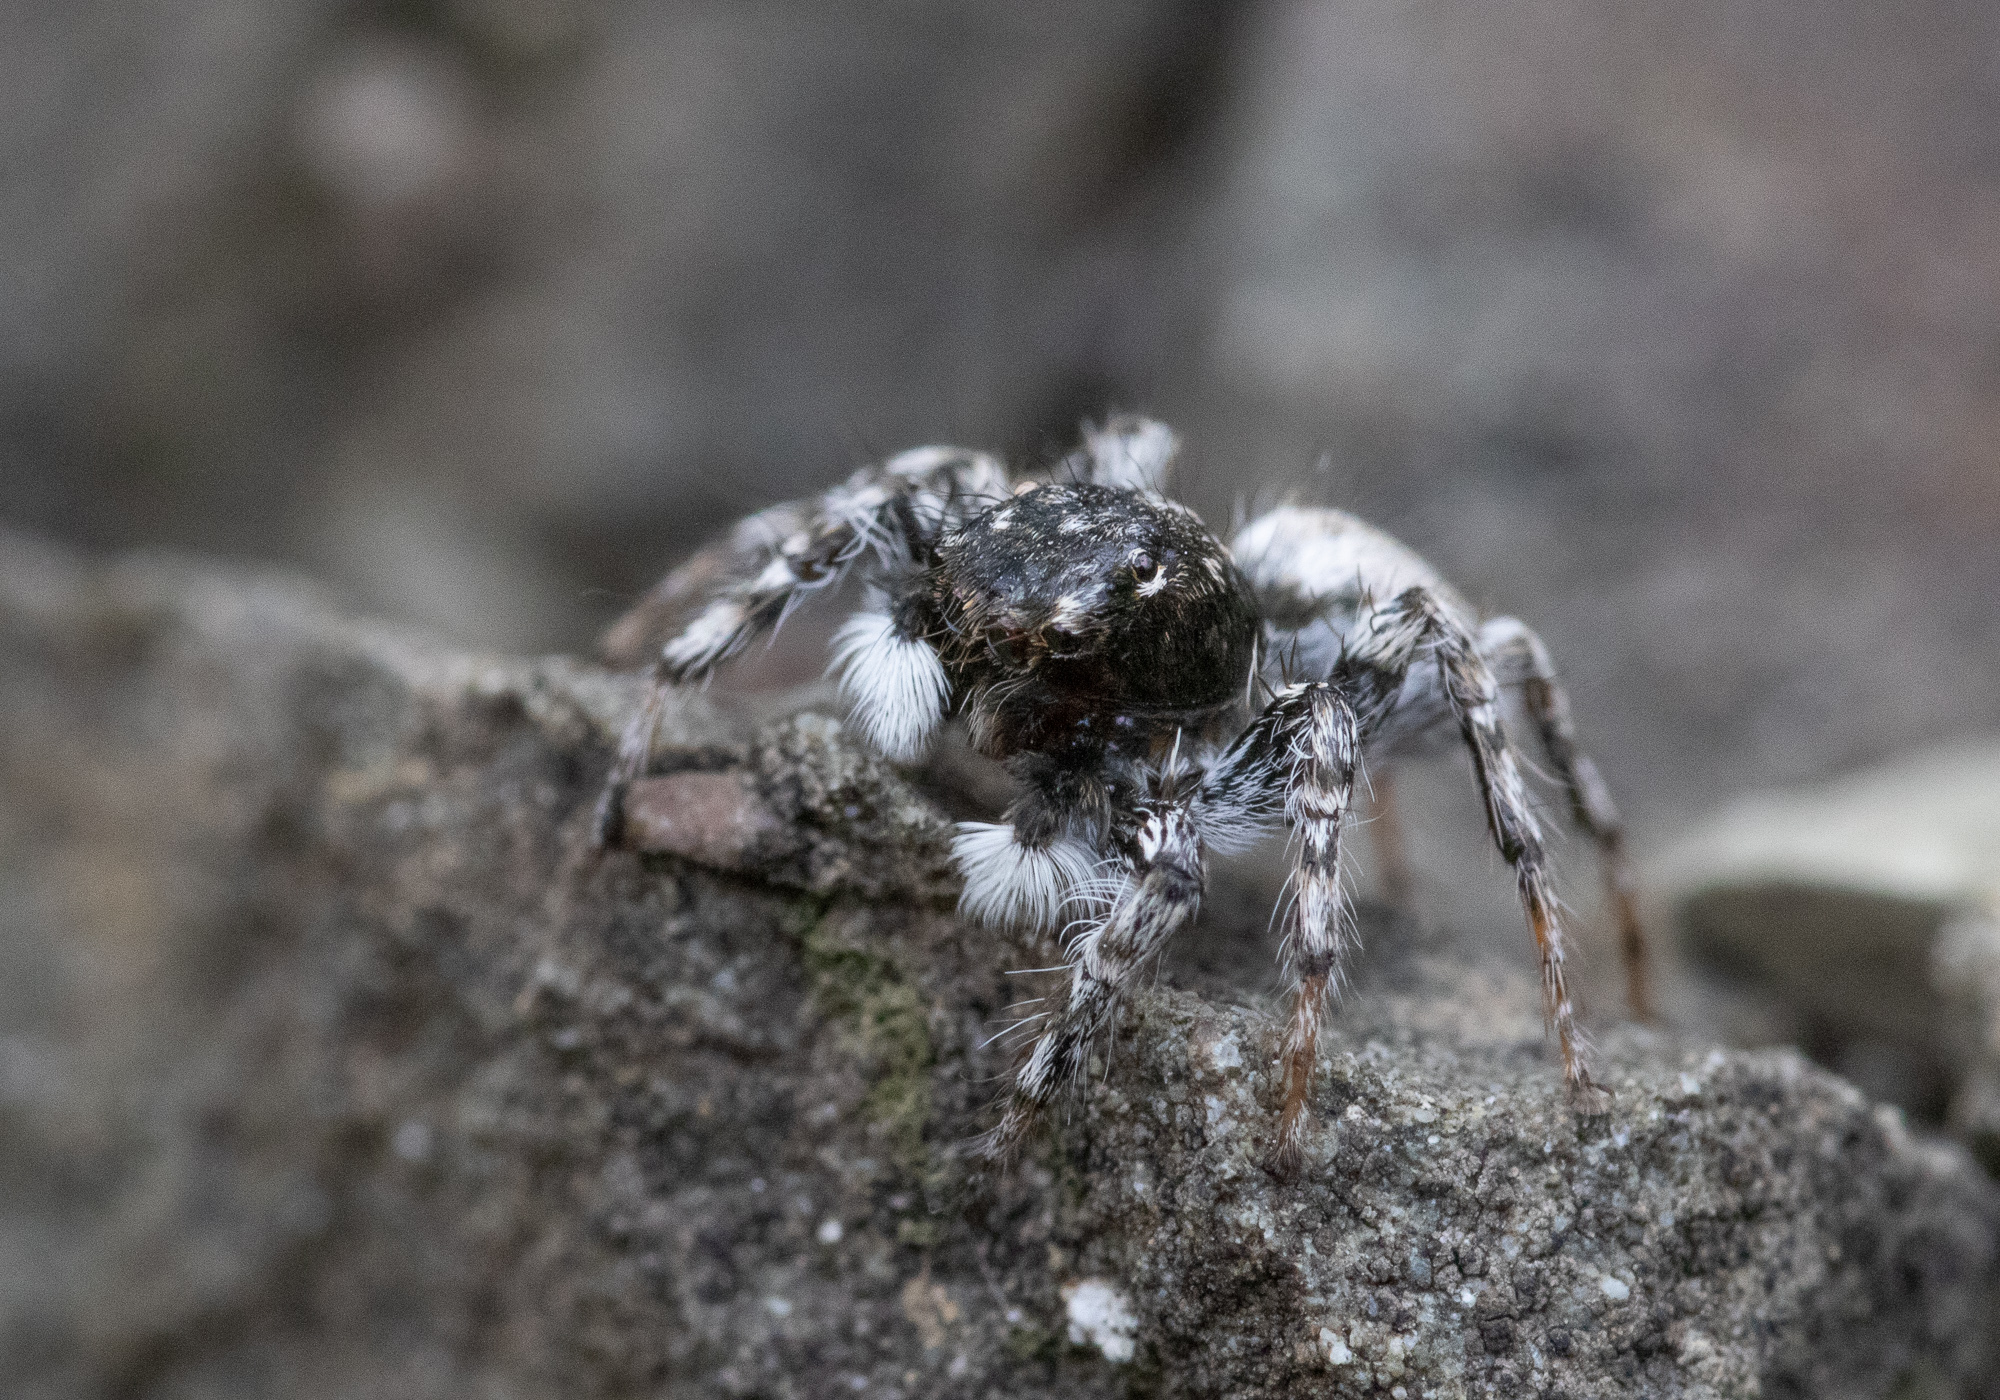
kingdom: Animalia
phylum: Arthropoda
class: Arachnida
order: Araneae
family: Salticidae
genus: Plexippoides
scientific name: Plexippoides gestroi
